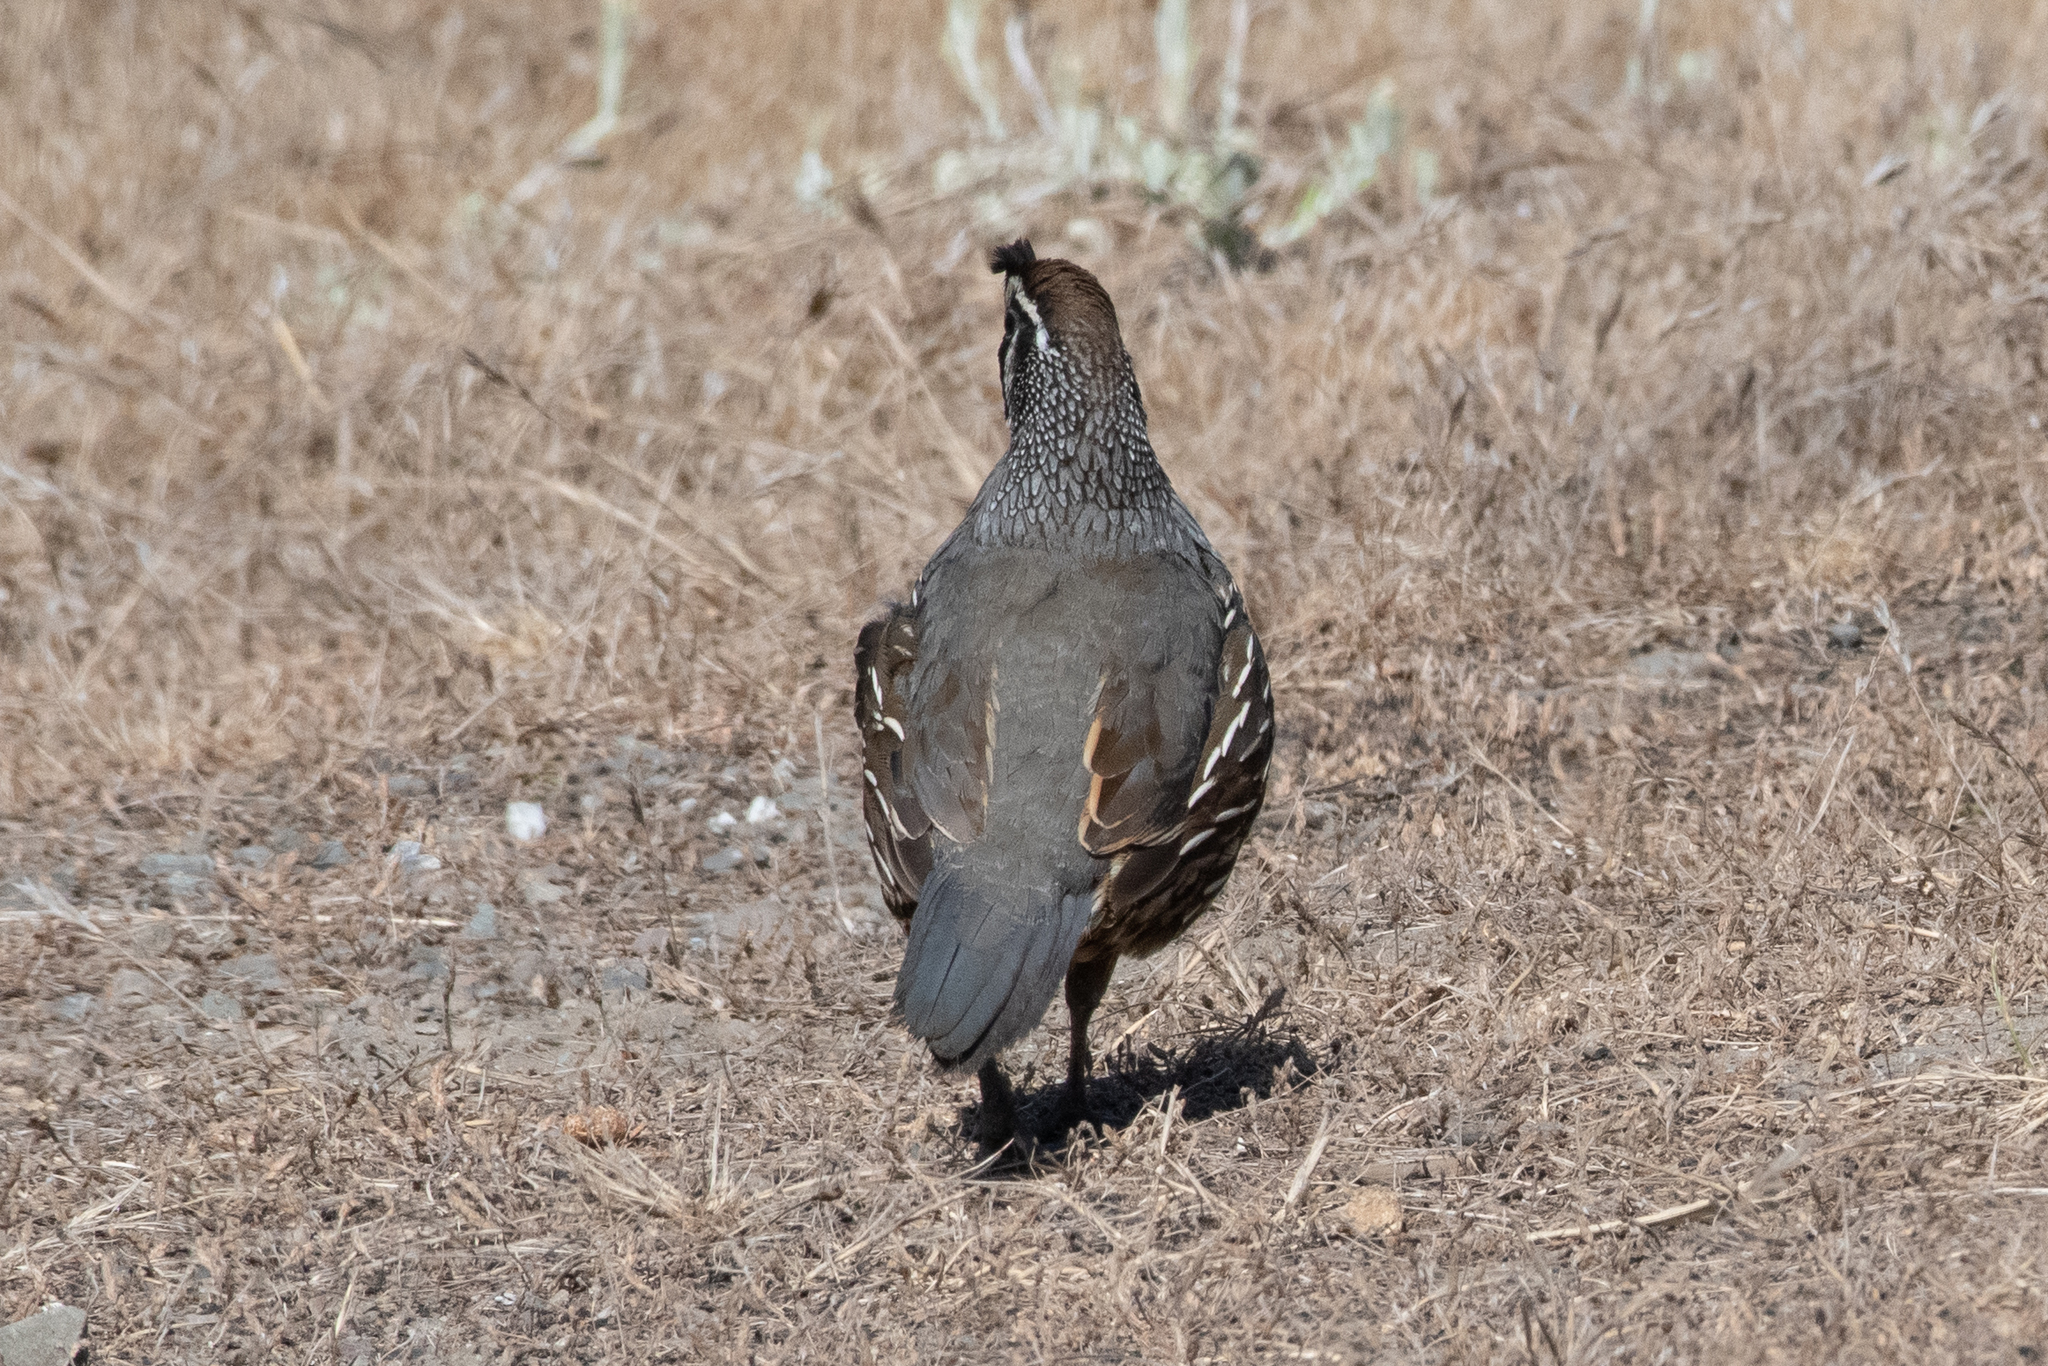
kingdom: Animalia
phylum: Chordata
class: Aves
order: Galliformes
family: Odontophoridae
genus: Callipepla
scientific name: Callipepla californica
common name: California quail
